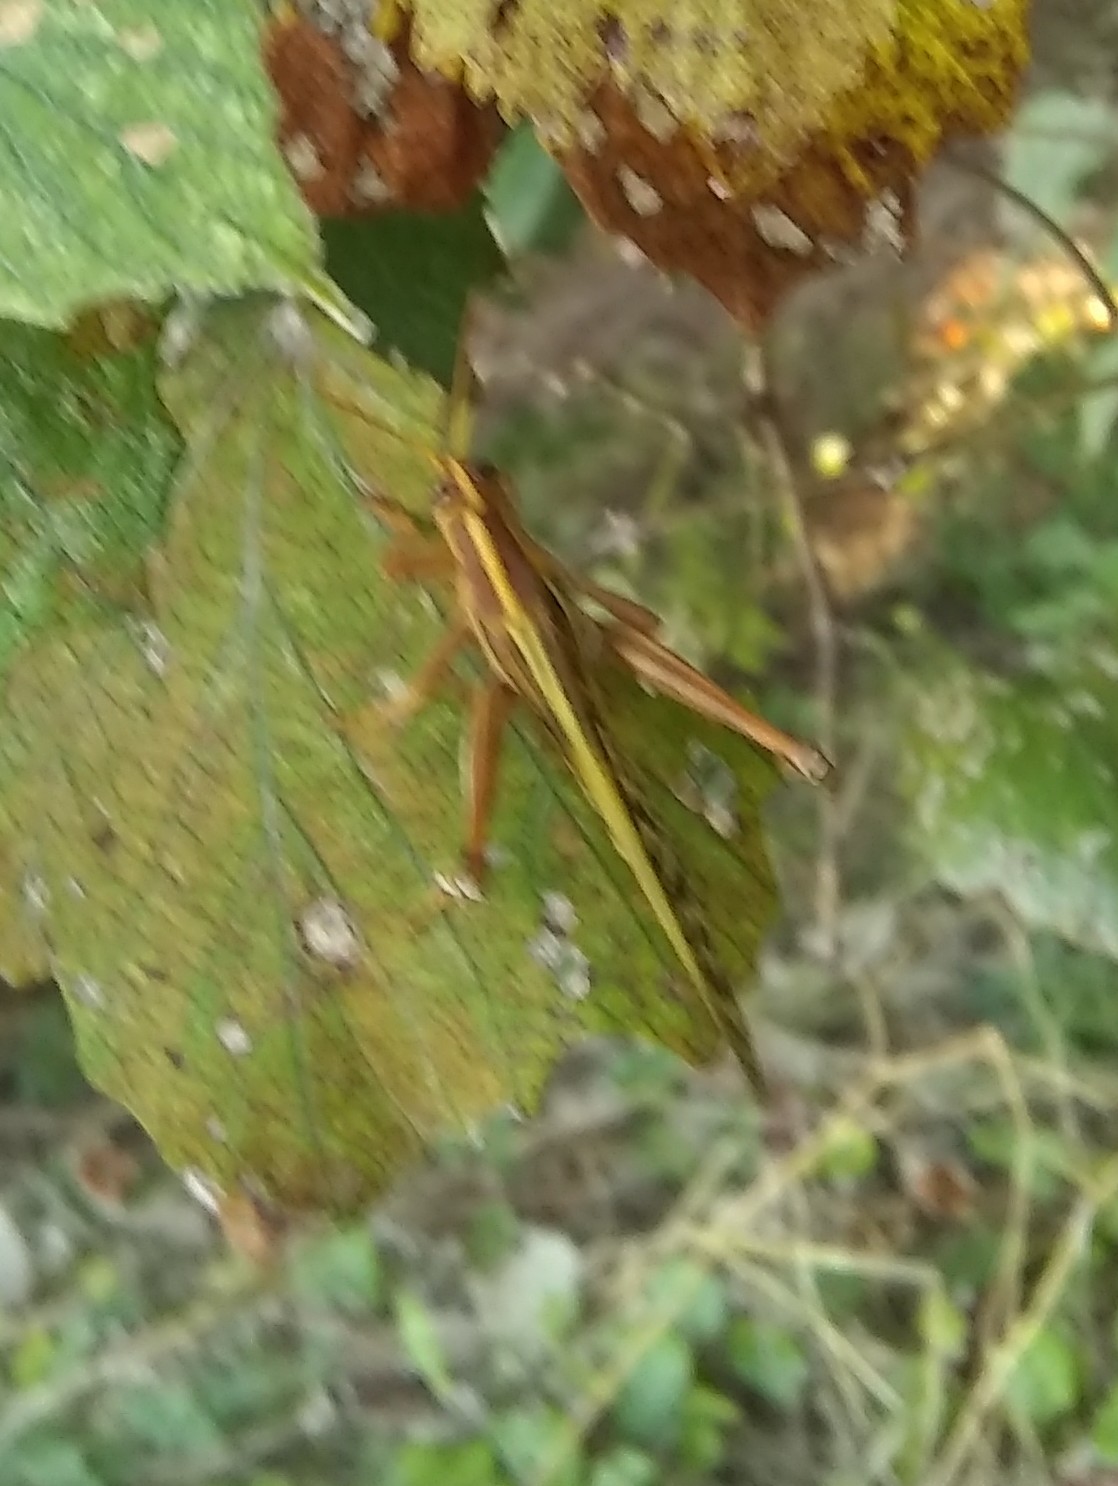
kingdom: Animalia
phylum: Arthropoda
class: Insecta
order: Orthoptera
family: Acrididae
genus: Schistocerca
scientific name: Schistocerca americana
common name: American bird locust
